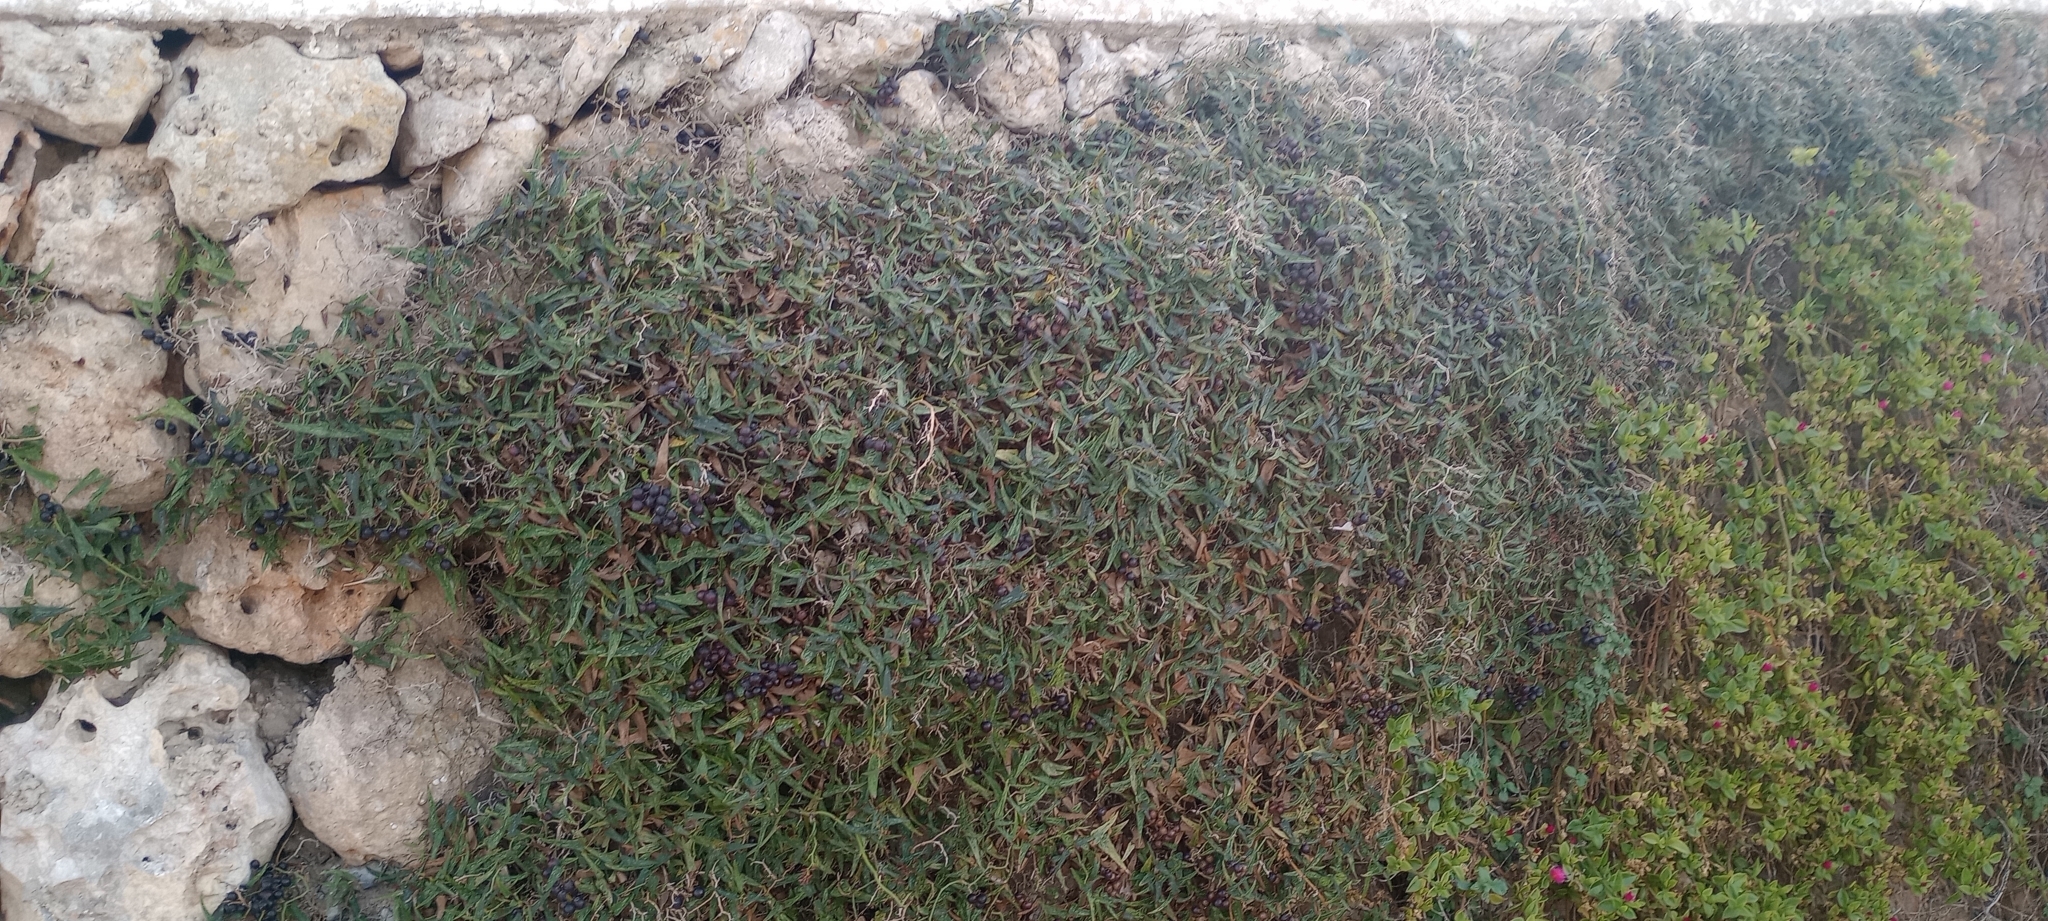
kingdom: Plantae
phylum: Tracheophyta
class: Liliopsida
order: Liliales
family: Smilacaceae
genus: Smilax
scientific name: Smilax aspera
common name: Common smilax
